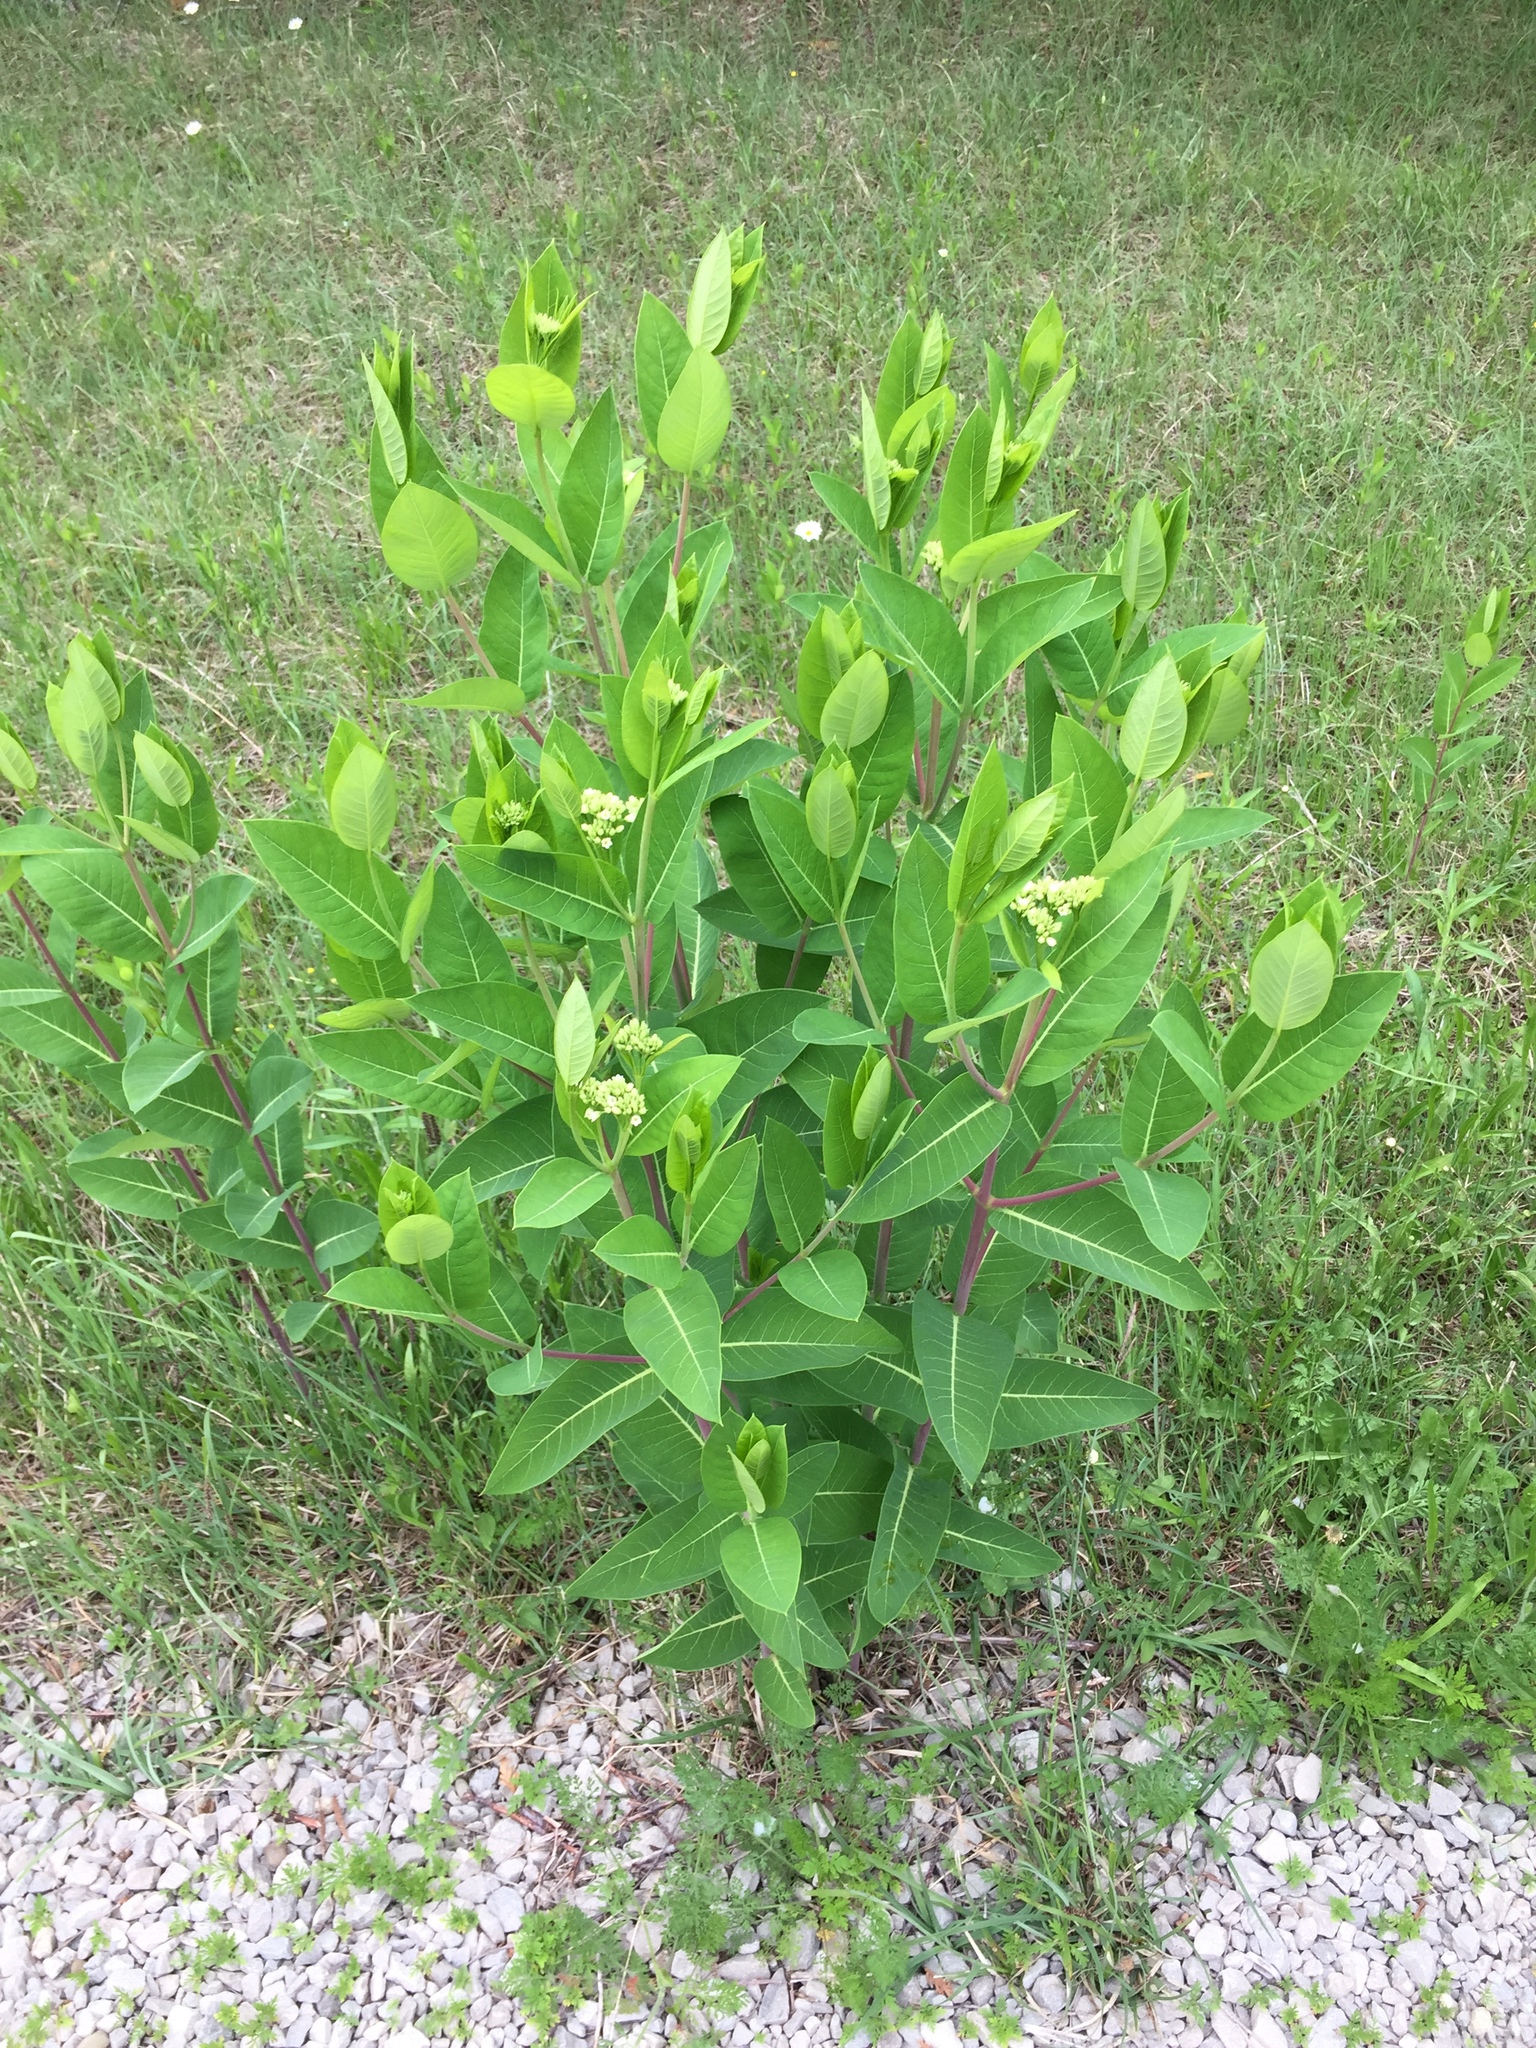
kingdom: Plantae
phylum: Tracheophyta
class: Magnoliopsida
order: Gentianales
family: Apocynaceae
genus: Apocynum
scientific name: Apocynum cannabinum
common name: Hemp dogbane
